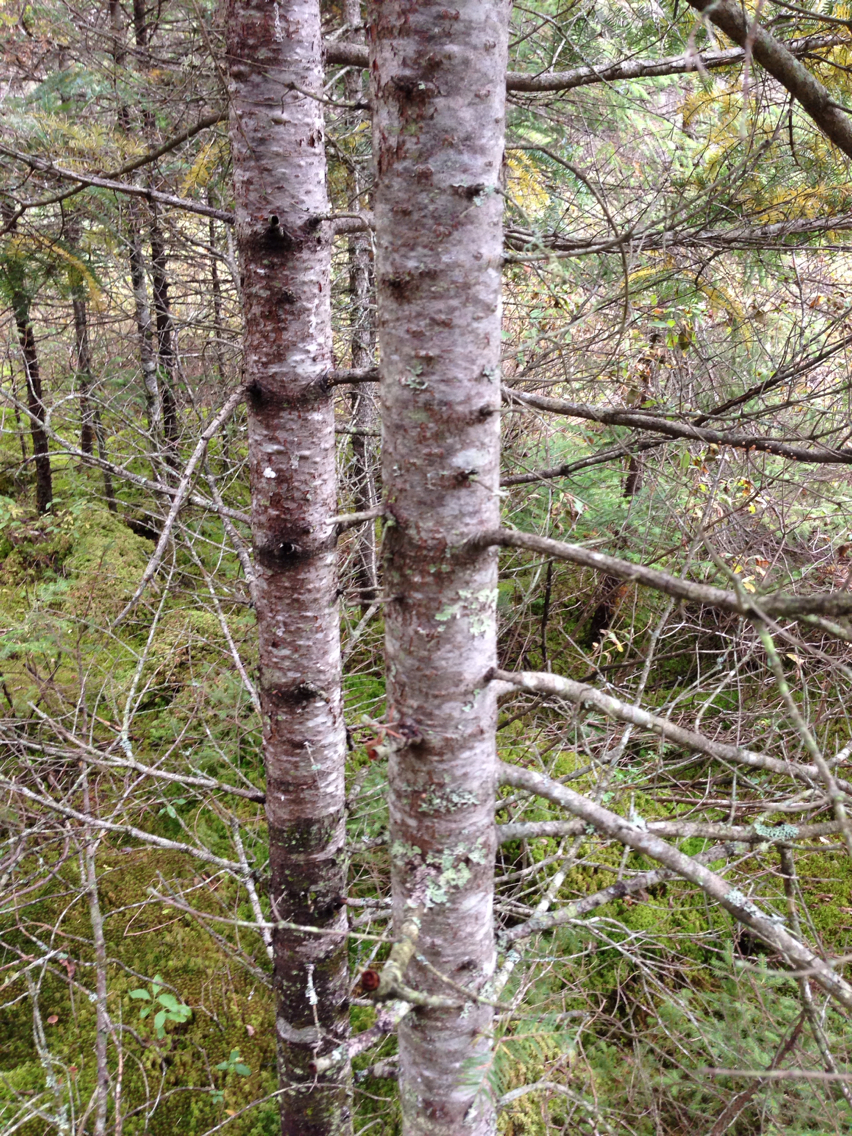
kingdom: Plantae
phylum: Tracheophyta
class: Pinopsida
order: Pinales
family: Pinaceae
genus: Abies
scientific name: Abies balsamea
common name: Balsam fir
